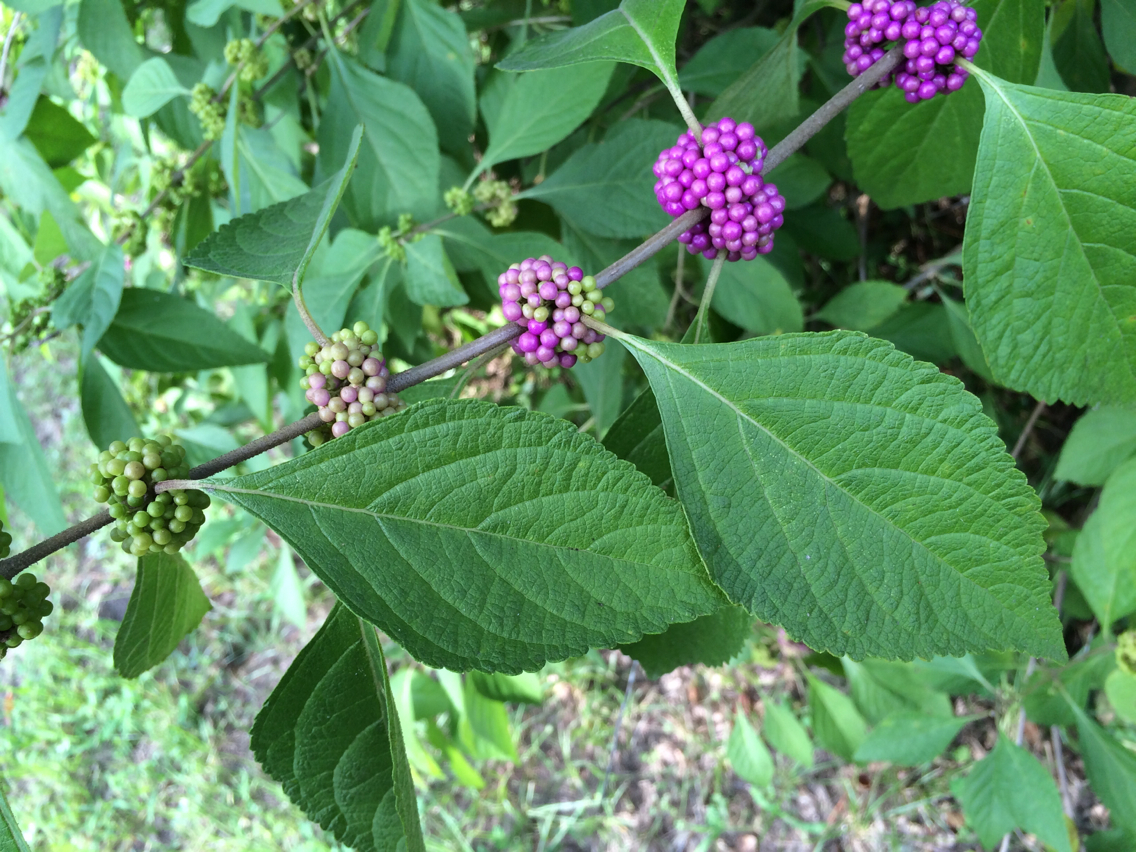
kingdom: Plantae
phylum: Tracheophyta
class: Magnoliopsida
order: Lamiales
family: Lamiaceae
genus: Callicarpa
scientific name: Callicarpa americana
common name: American beautyberry
